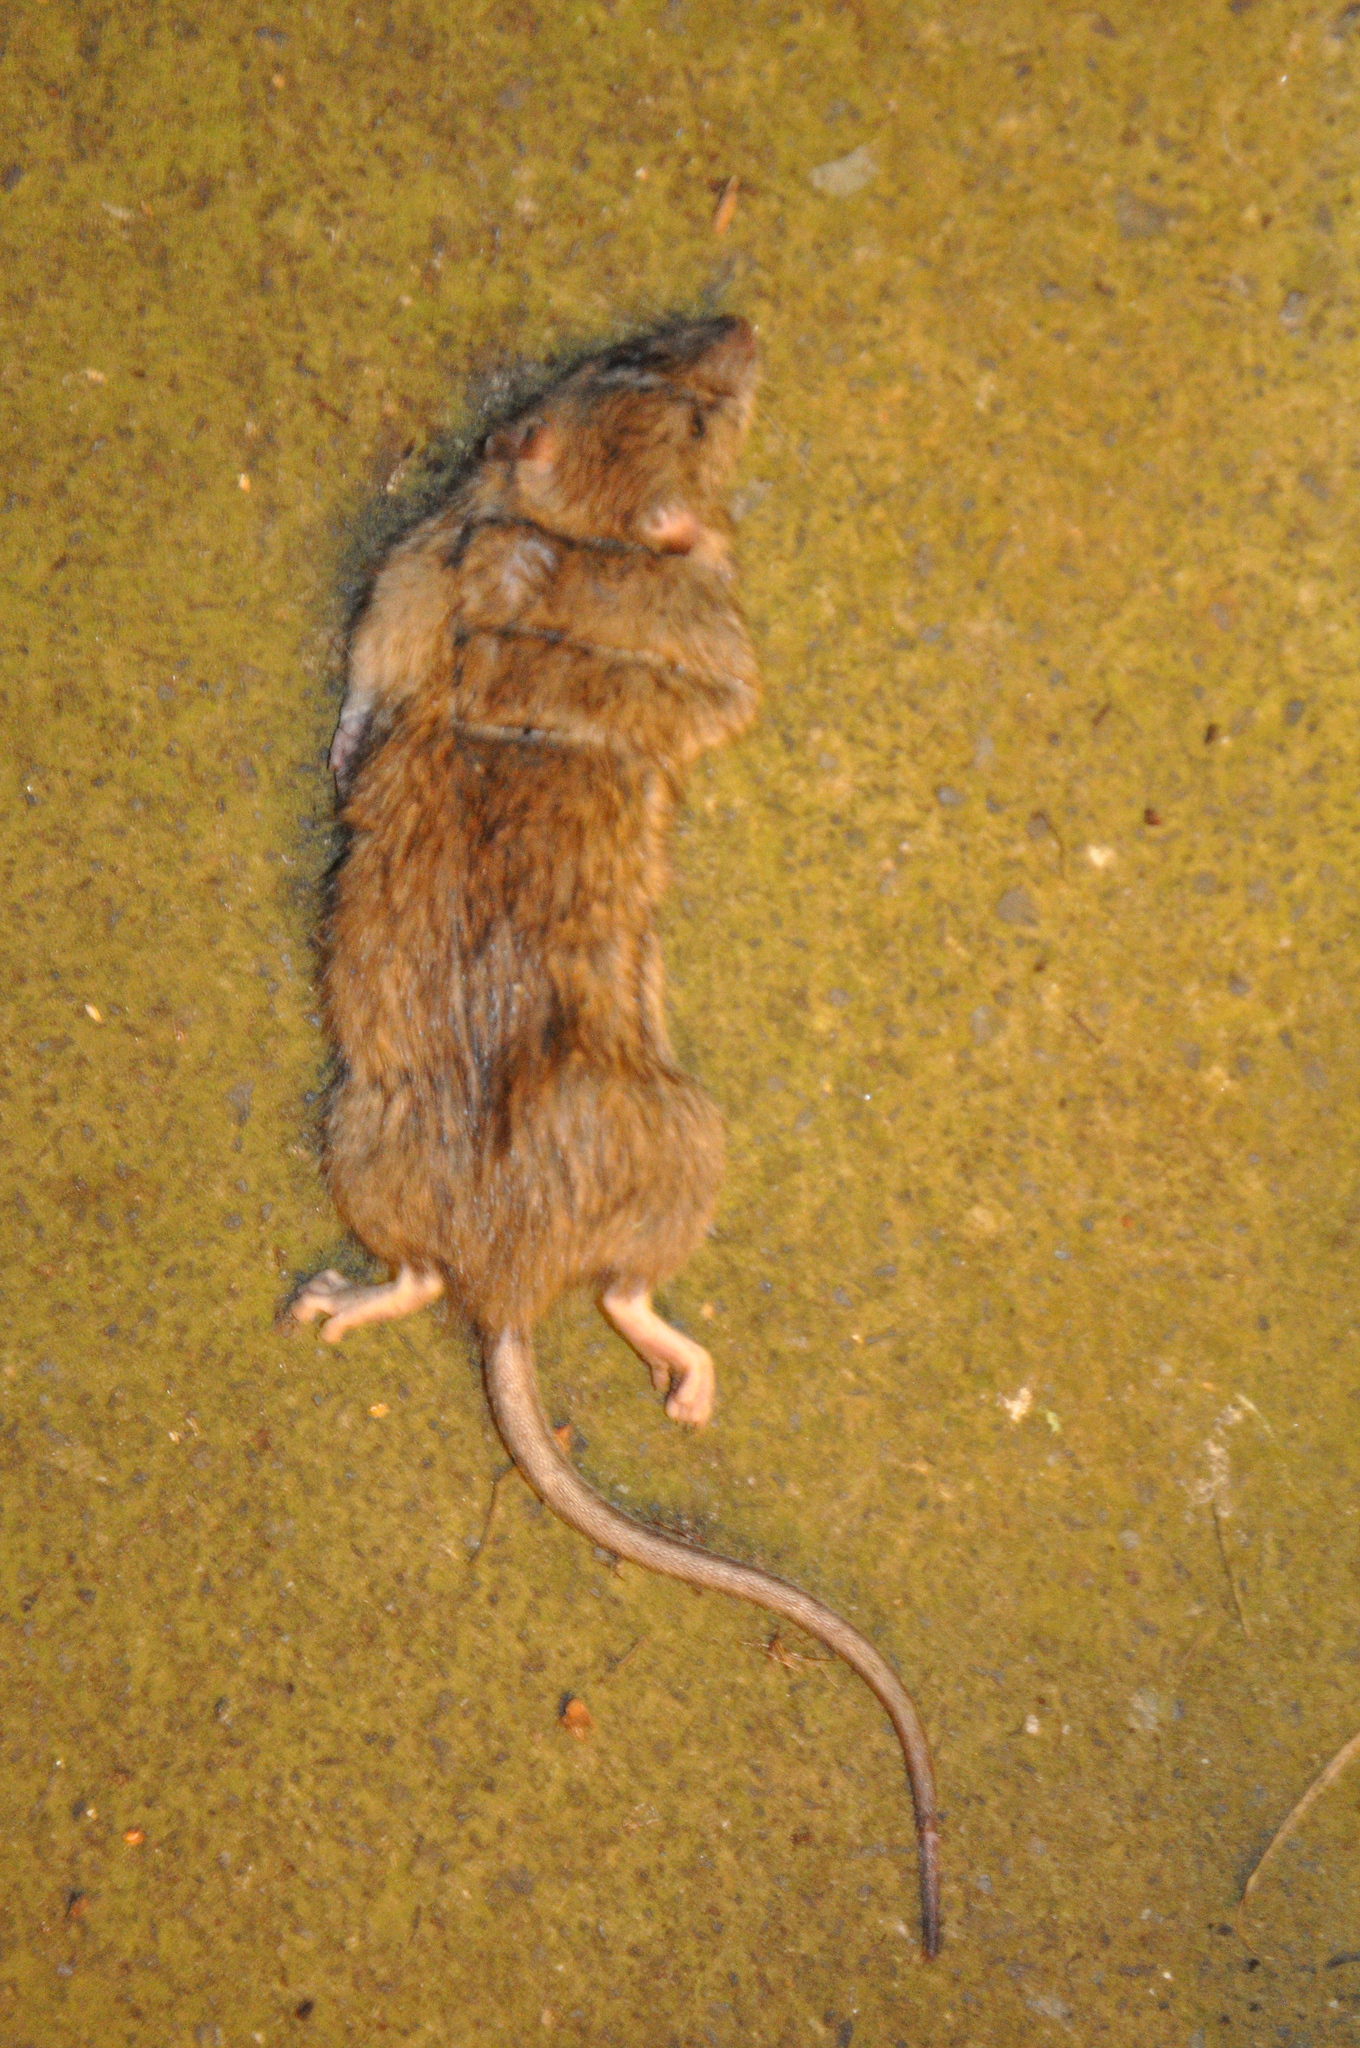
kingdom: Animalia
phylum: Chordata
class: Mammalia
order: Rodentia
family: Muridae
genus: Rattus
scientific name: Rattus norvegicus
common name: Brown rat
